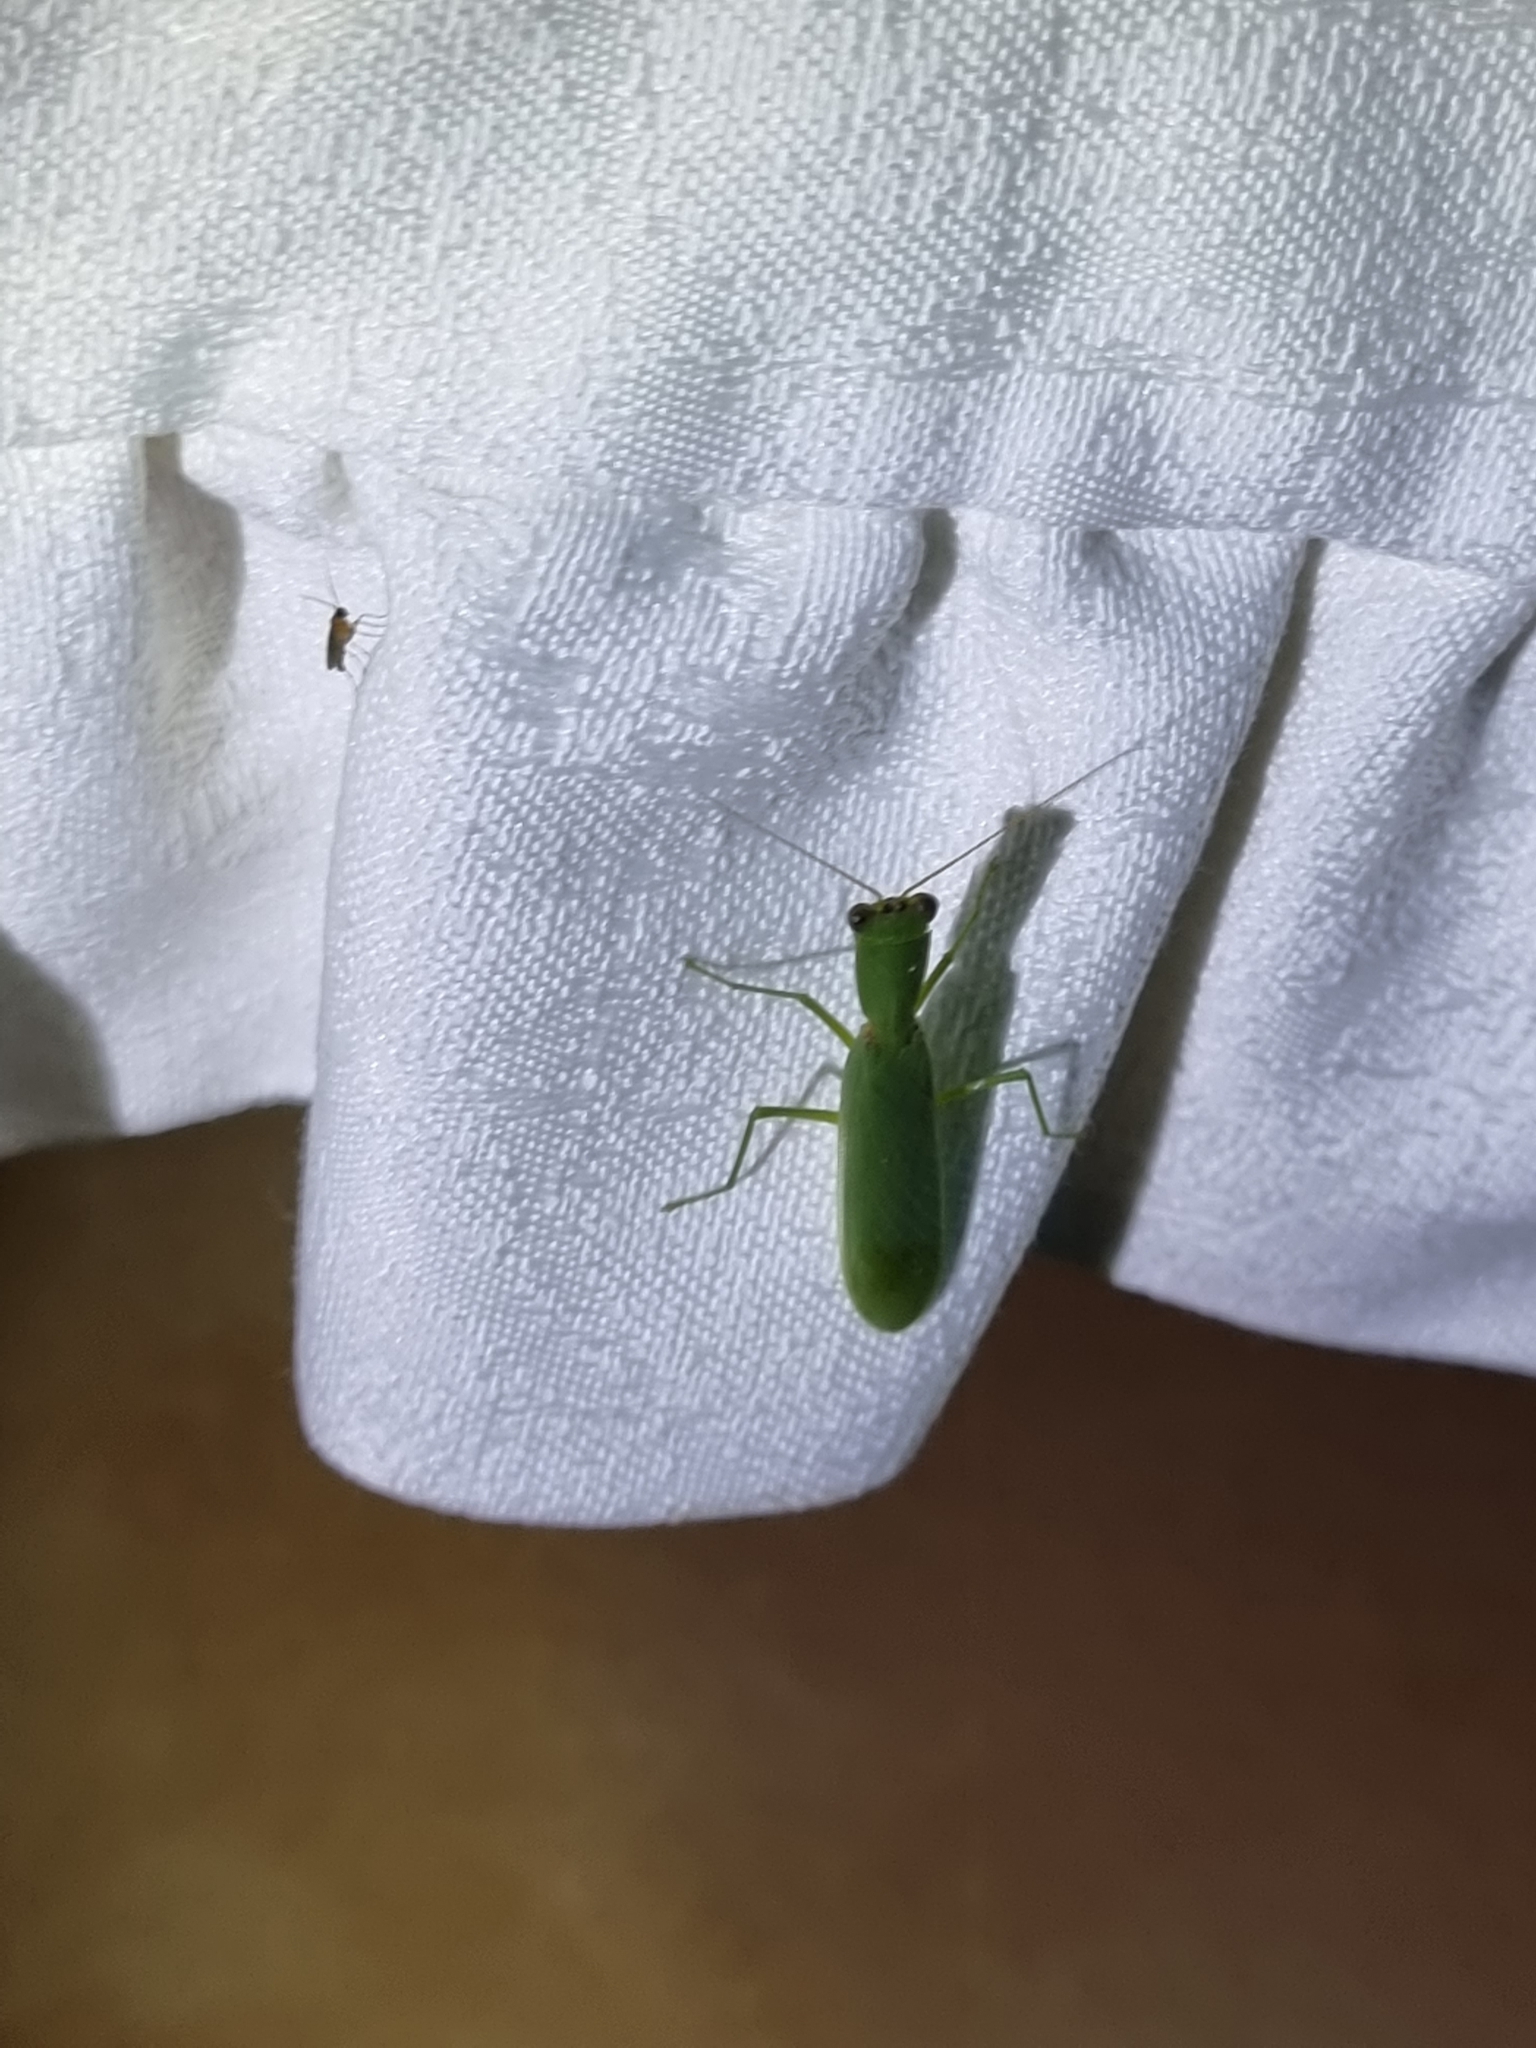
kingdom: Animalia
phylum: Arthropoda
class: Insecta
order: Mantodea
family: Mantidae
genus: Orthodera
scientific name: Orthodera ministralis
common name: Mantis
